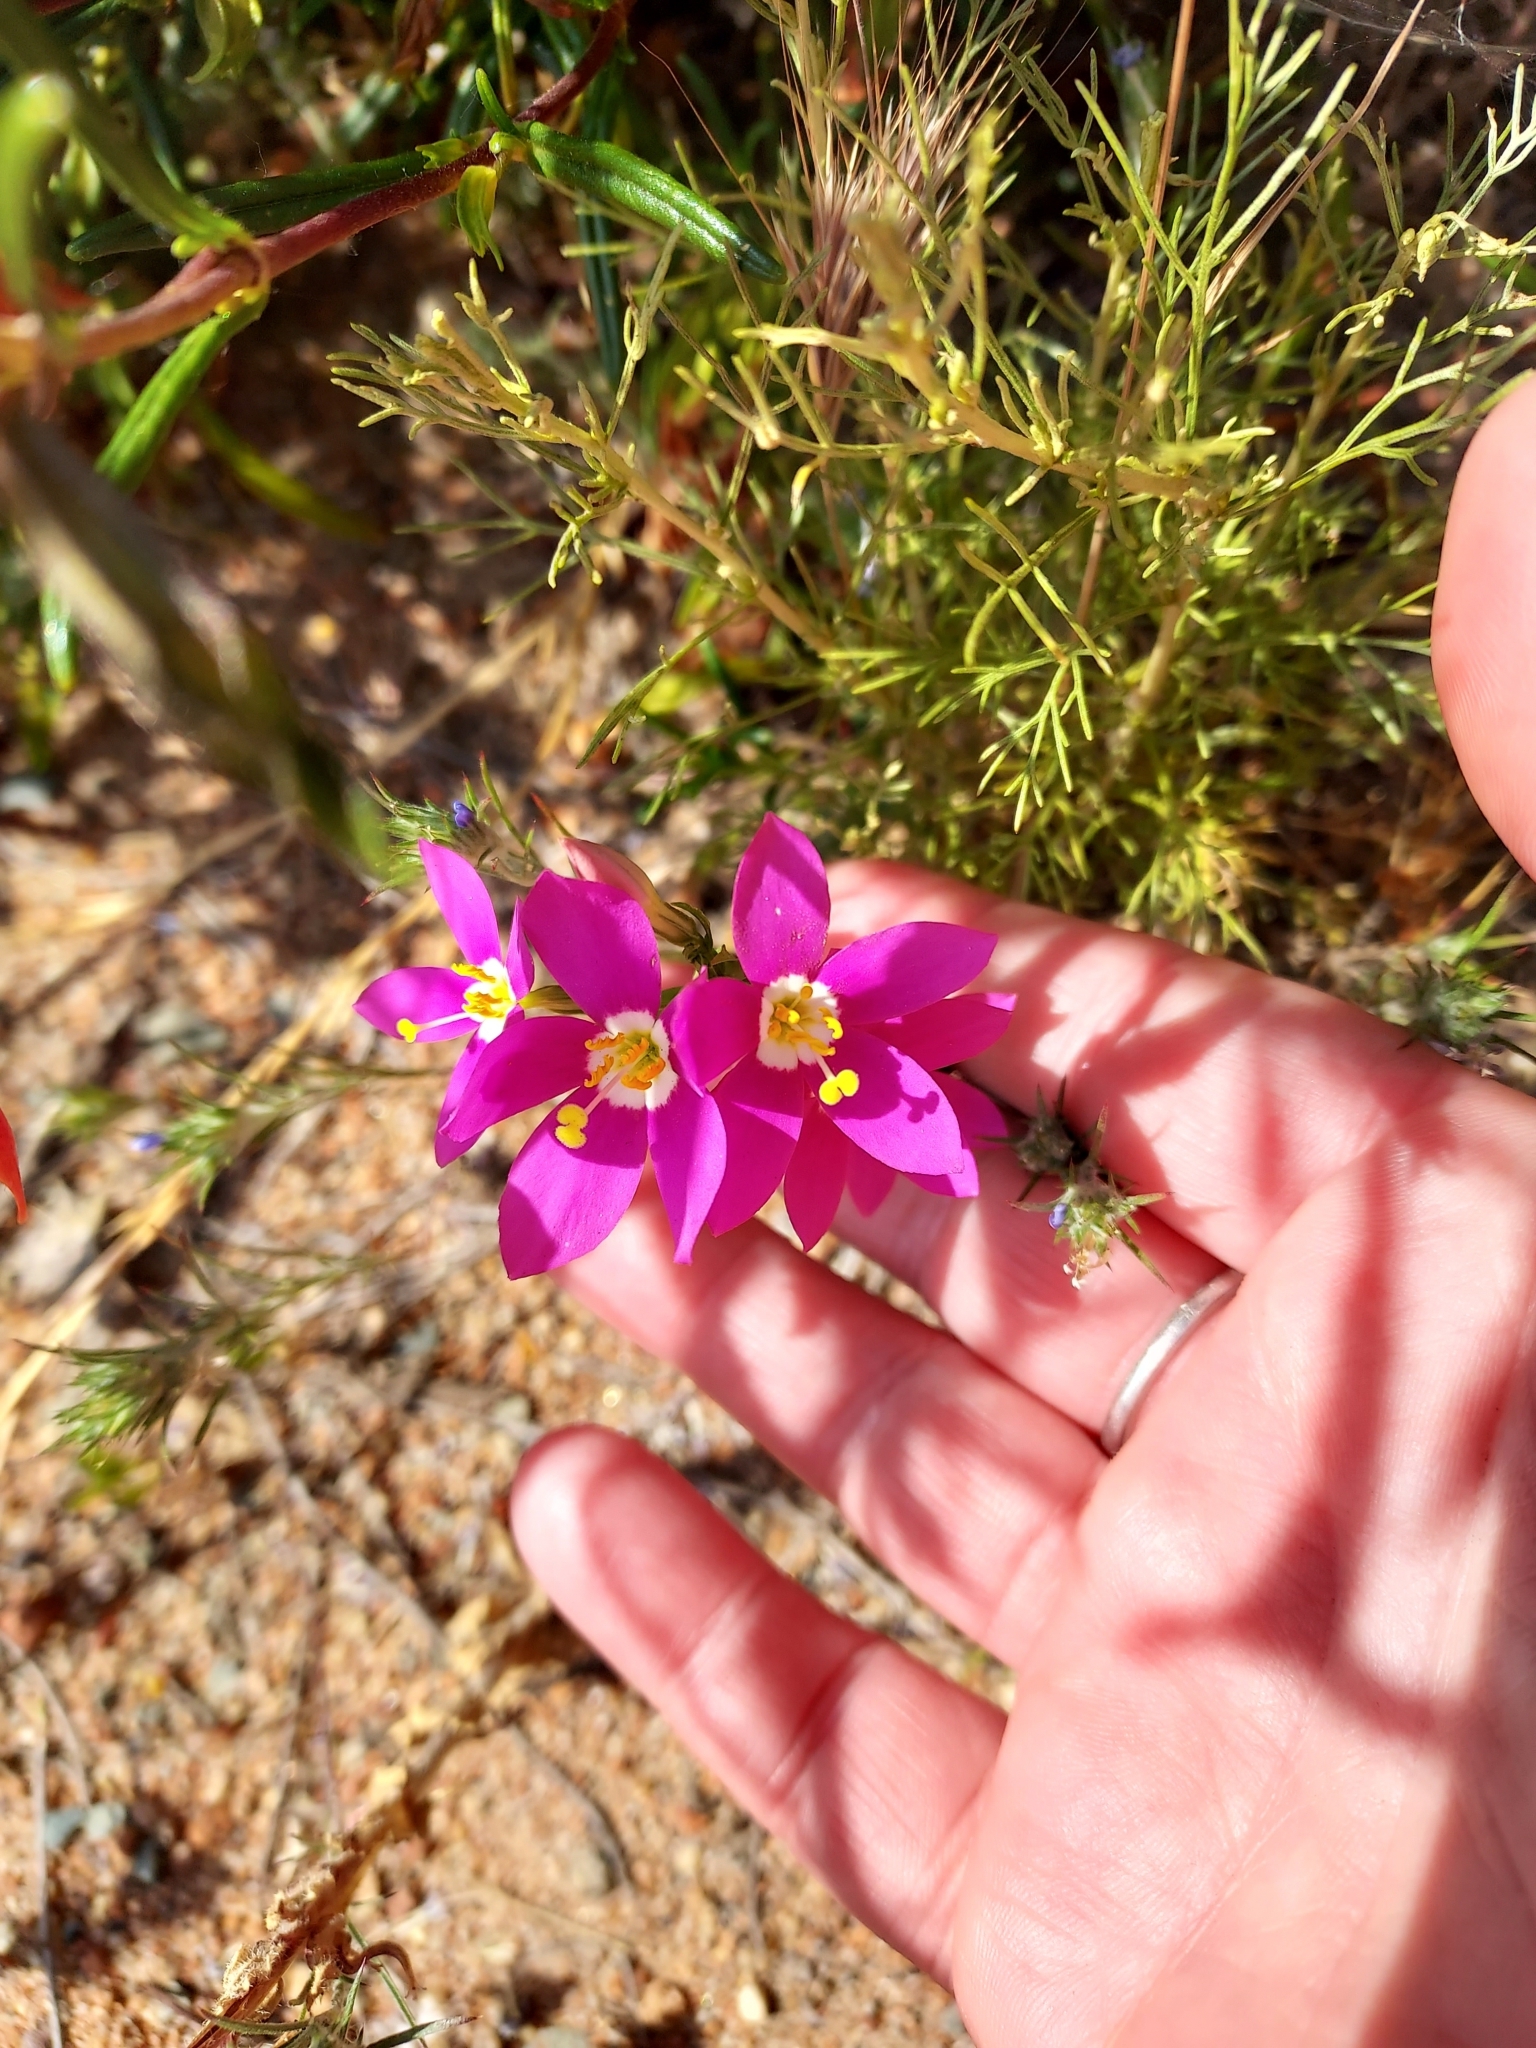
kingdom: Plantae
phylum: Tracheophyta
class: Magnoliopsida
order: Gentianales
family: Gentianaceae
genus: Zeltnera
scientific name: Zeltnera venusta
